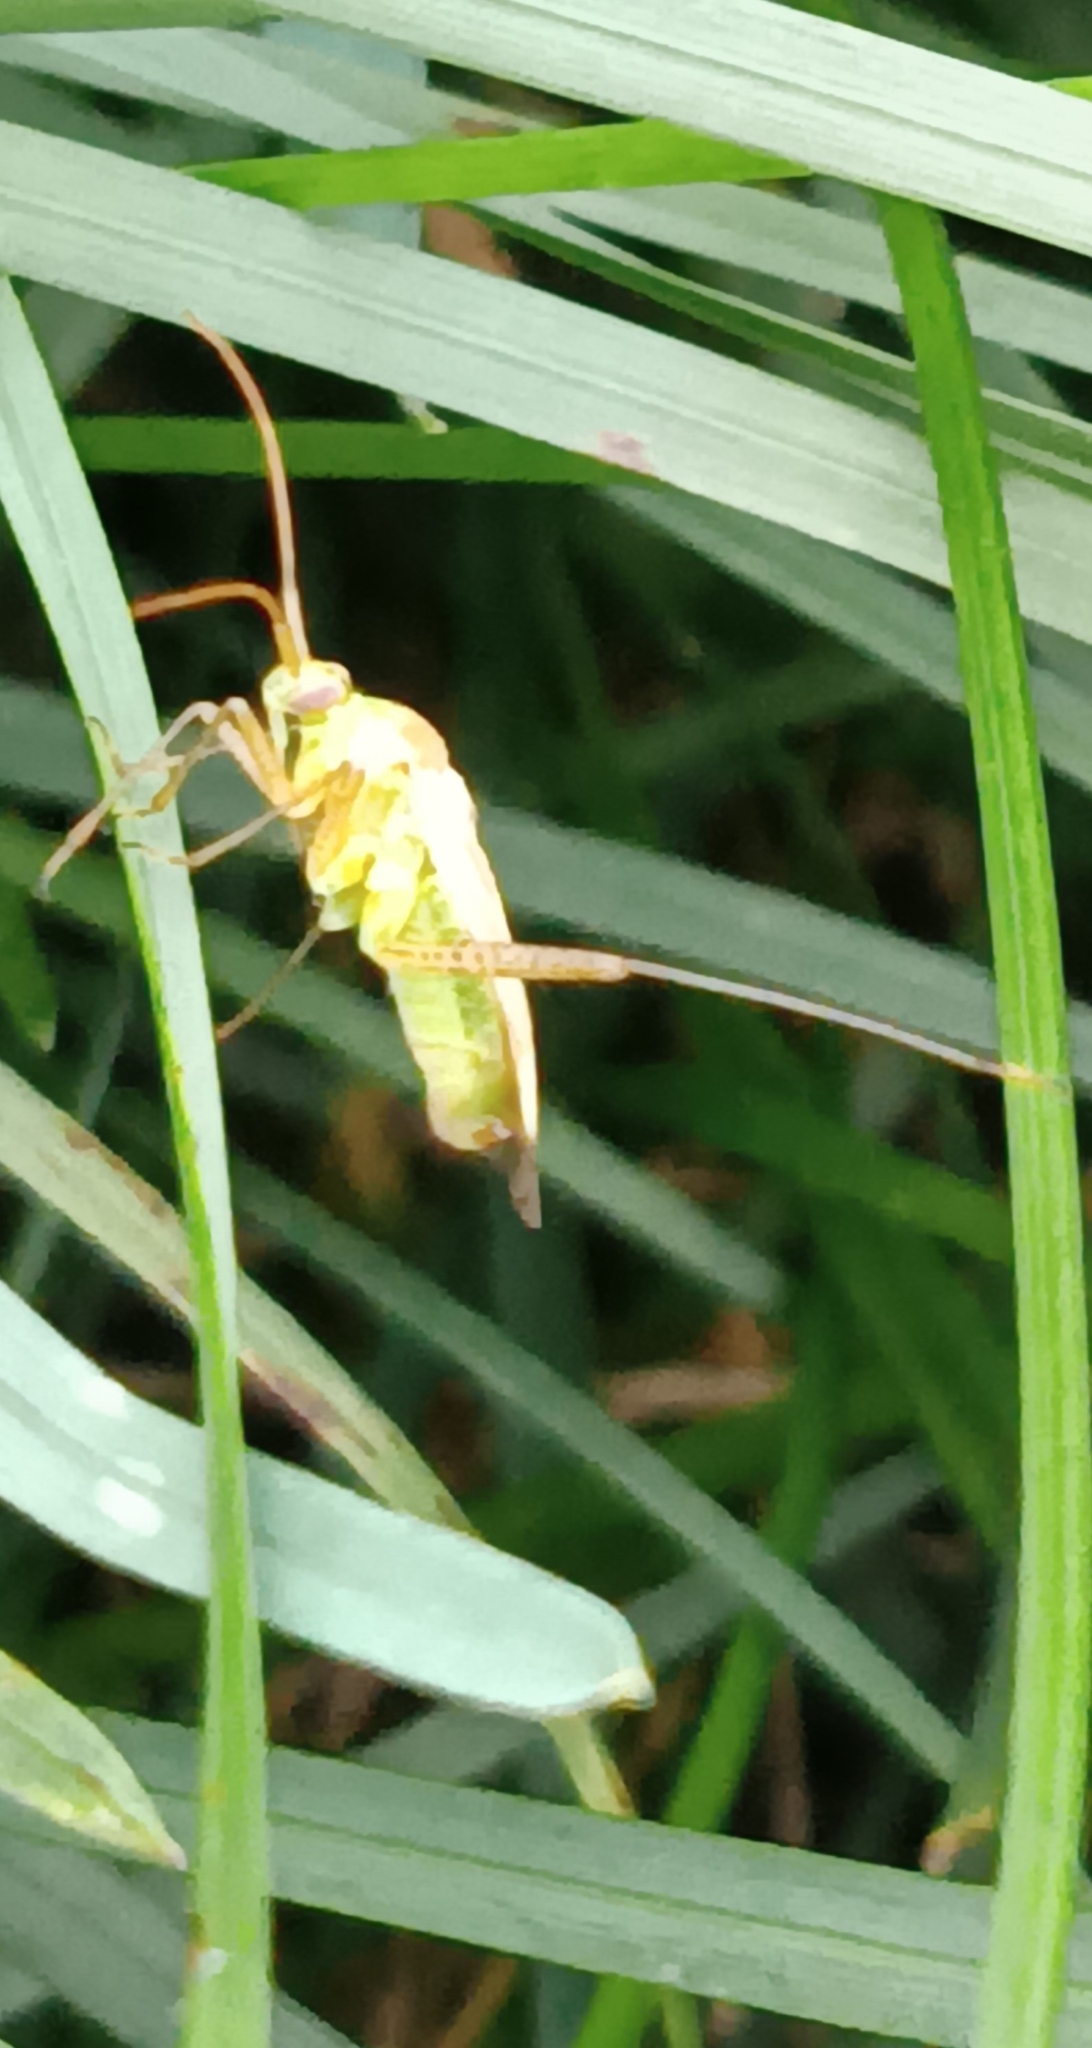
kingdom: Animalia
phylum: Arthropoda
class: Insecta
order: Hemiptera
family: Miridae
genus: Adelphocoris
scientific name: Adelphocoris lineolatus
